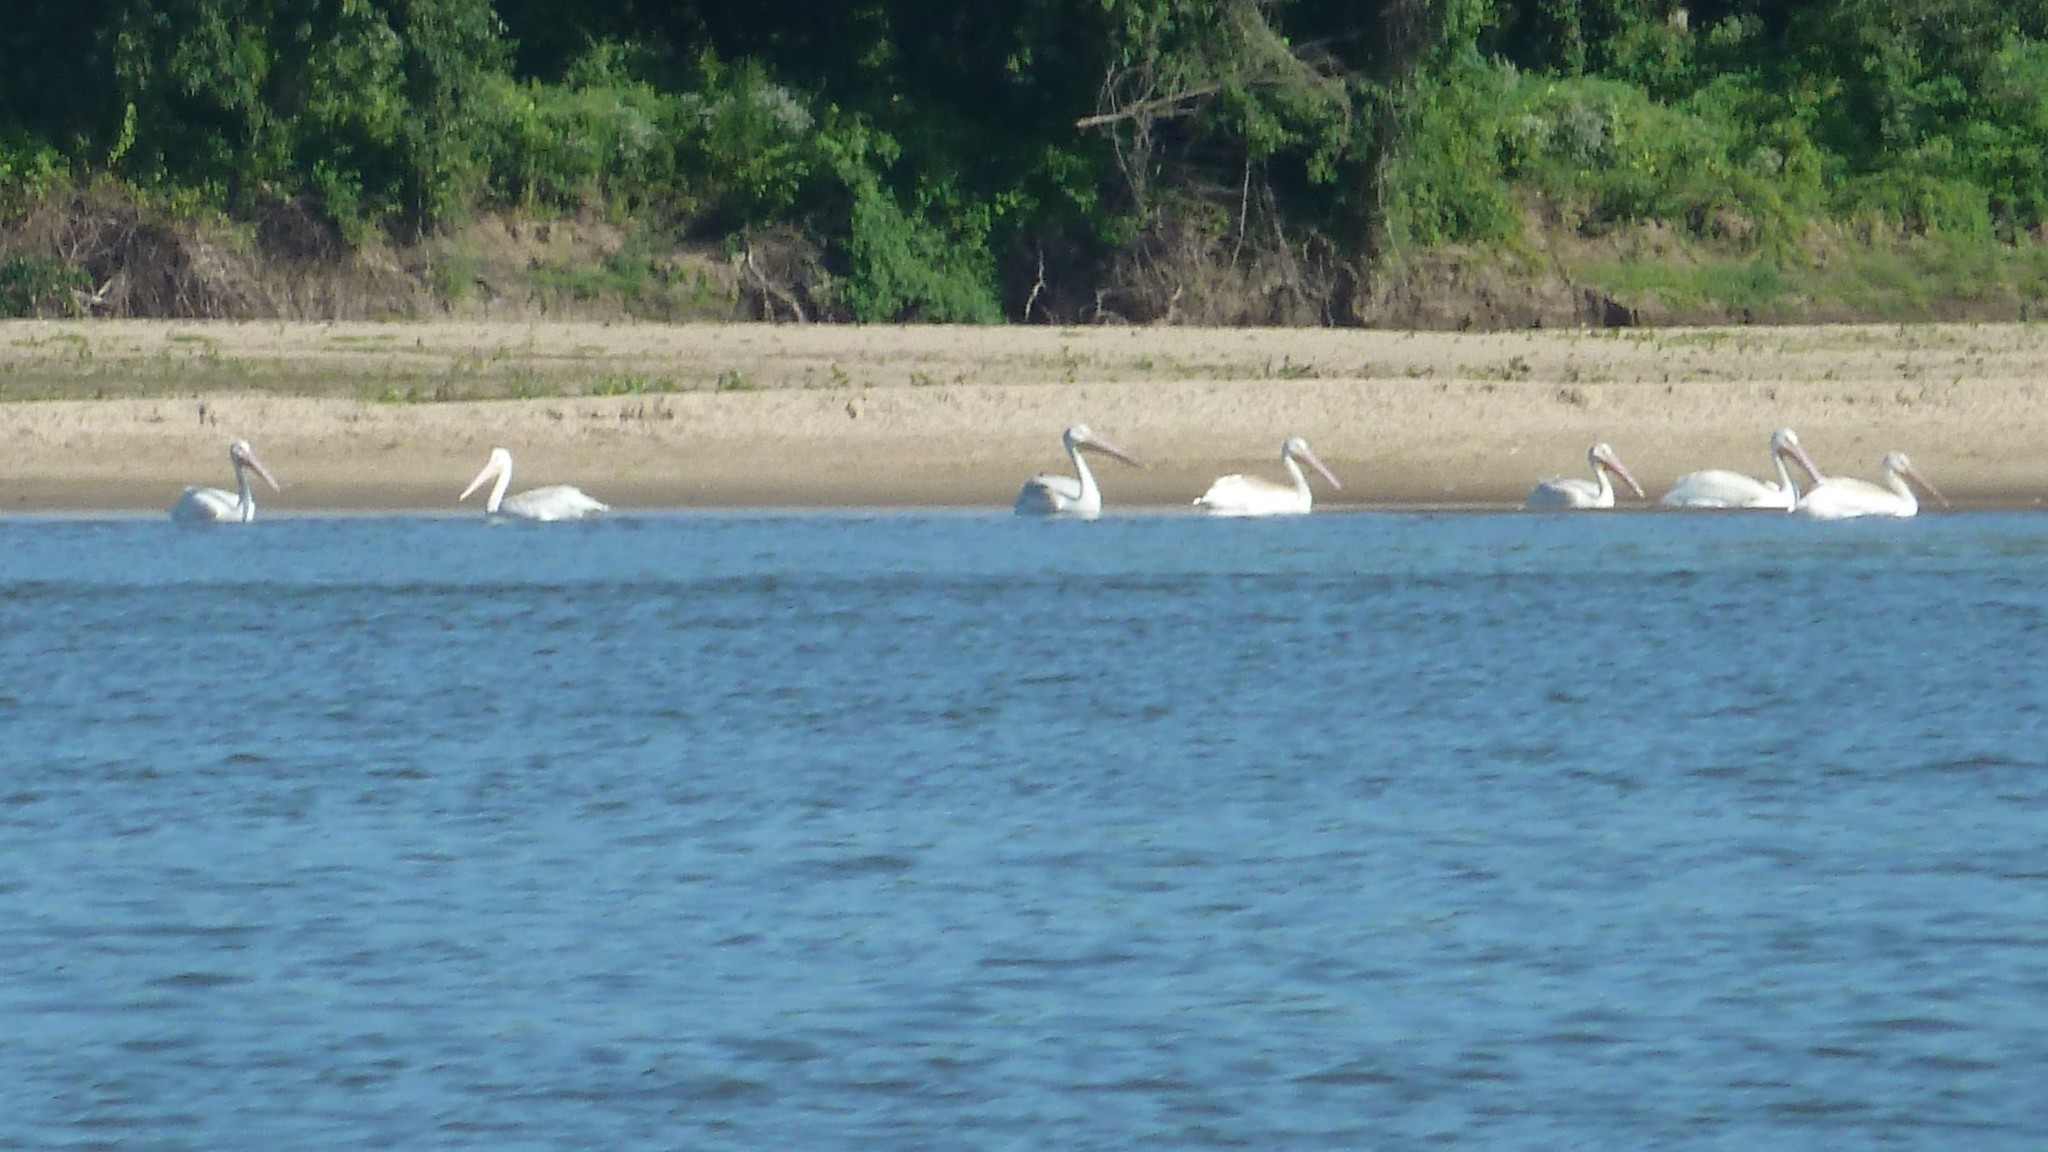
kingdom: Animalia
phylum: Chordata
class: Aves
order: Pelecaniformes
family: Pelecanidae
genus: Pelecanus
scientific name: Pelecanus erythrorhynchos
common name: American white pelican
